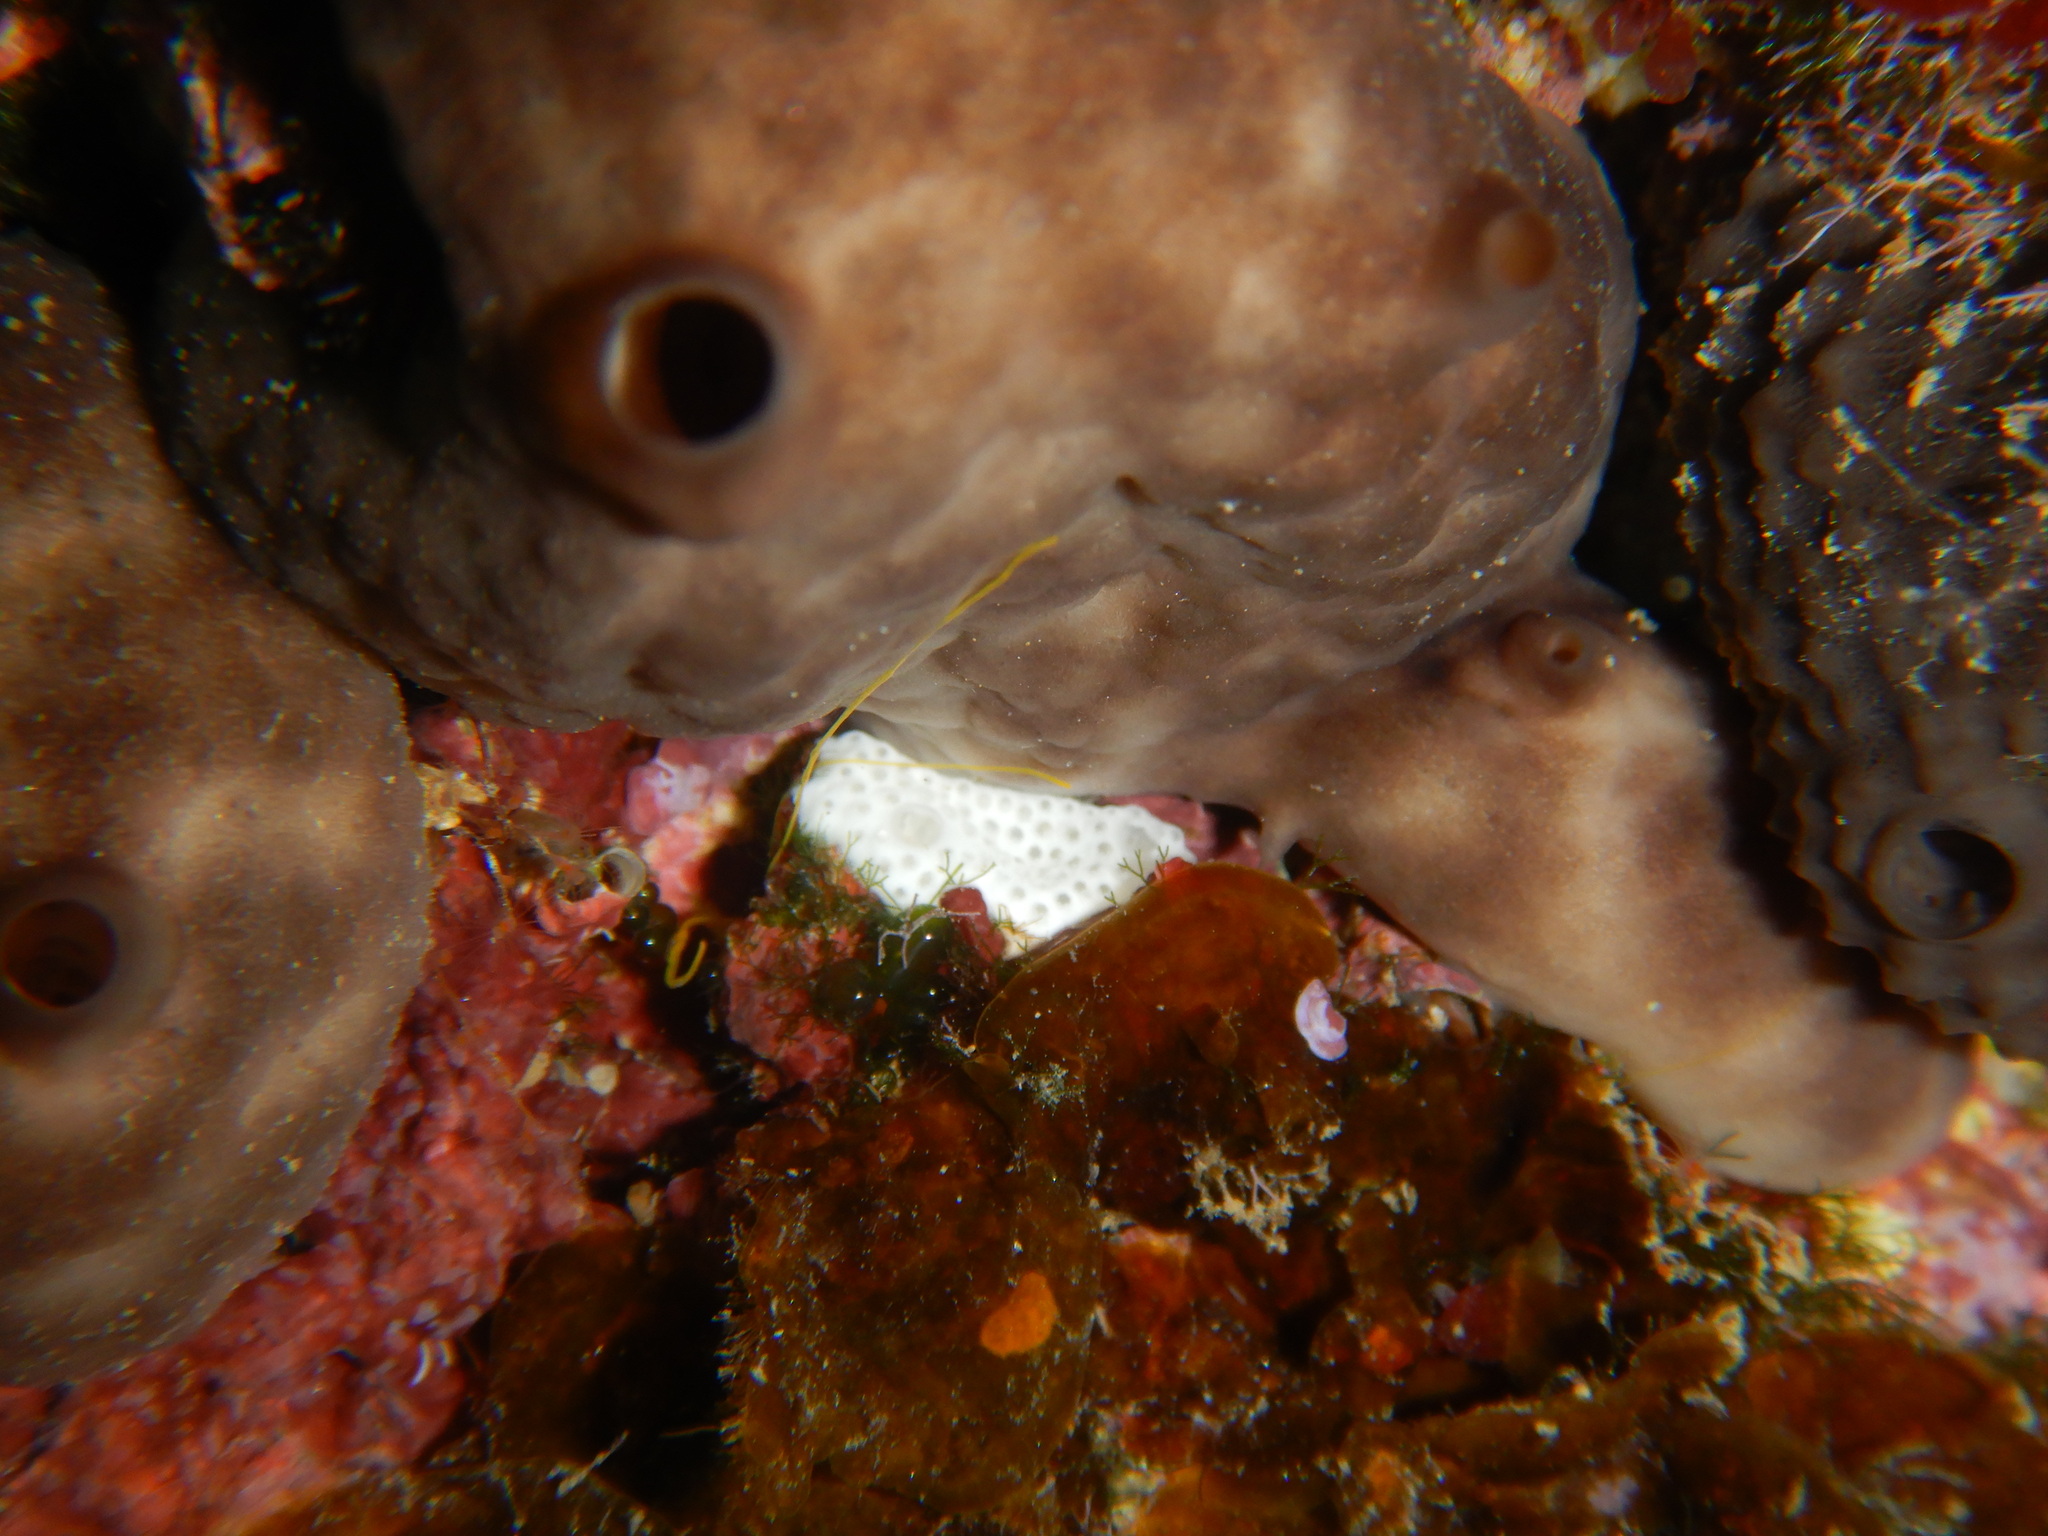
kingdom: Animalia
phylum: Porifera
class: Demospongiae
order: Chondrosiida
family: Chondrosiidae
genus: Chondrosia
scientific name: Chondrosia reniformis
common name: Chicken liver sponge
